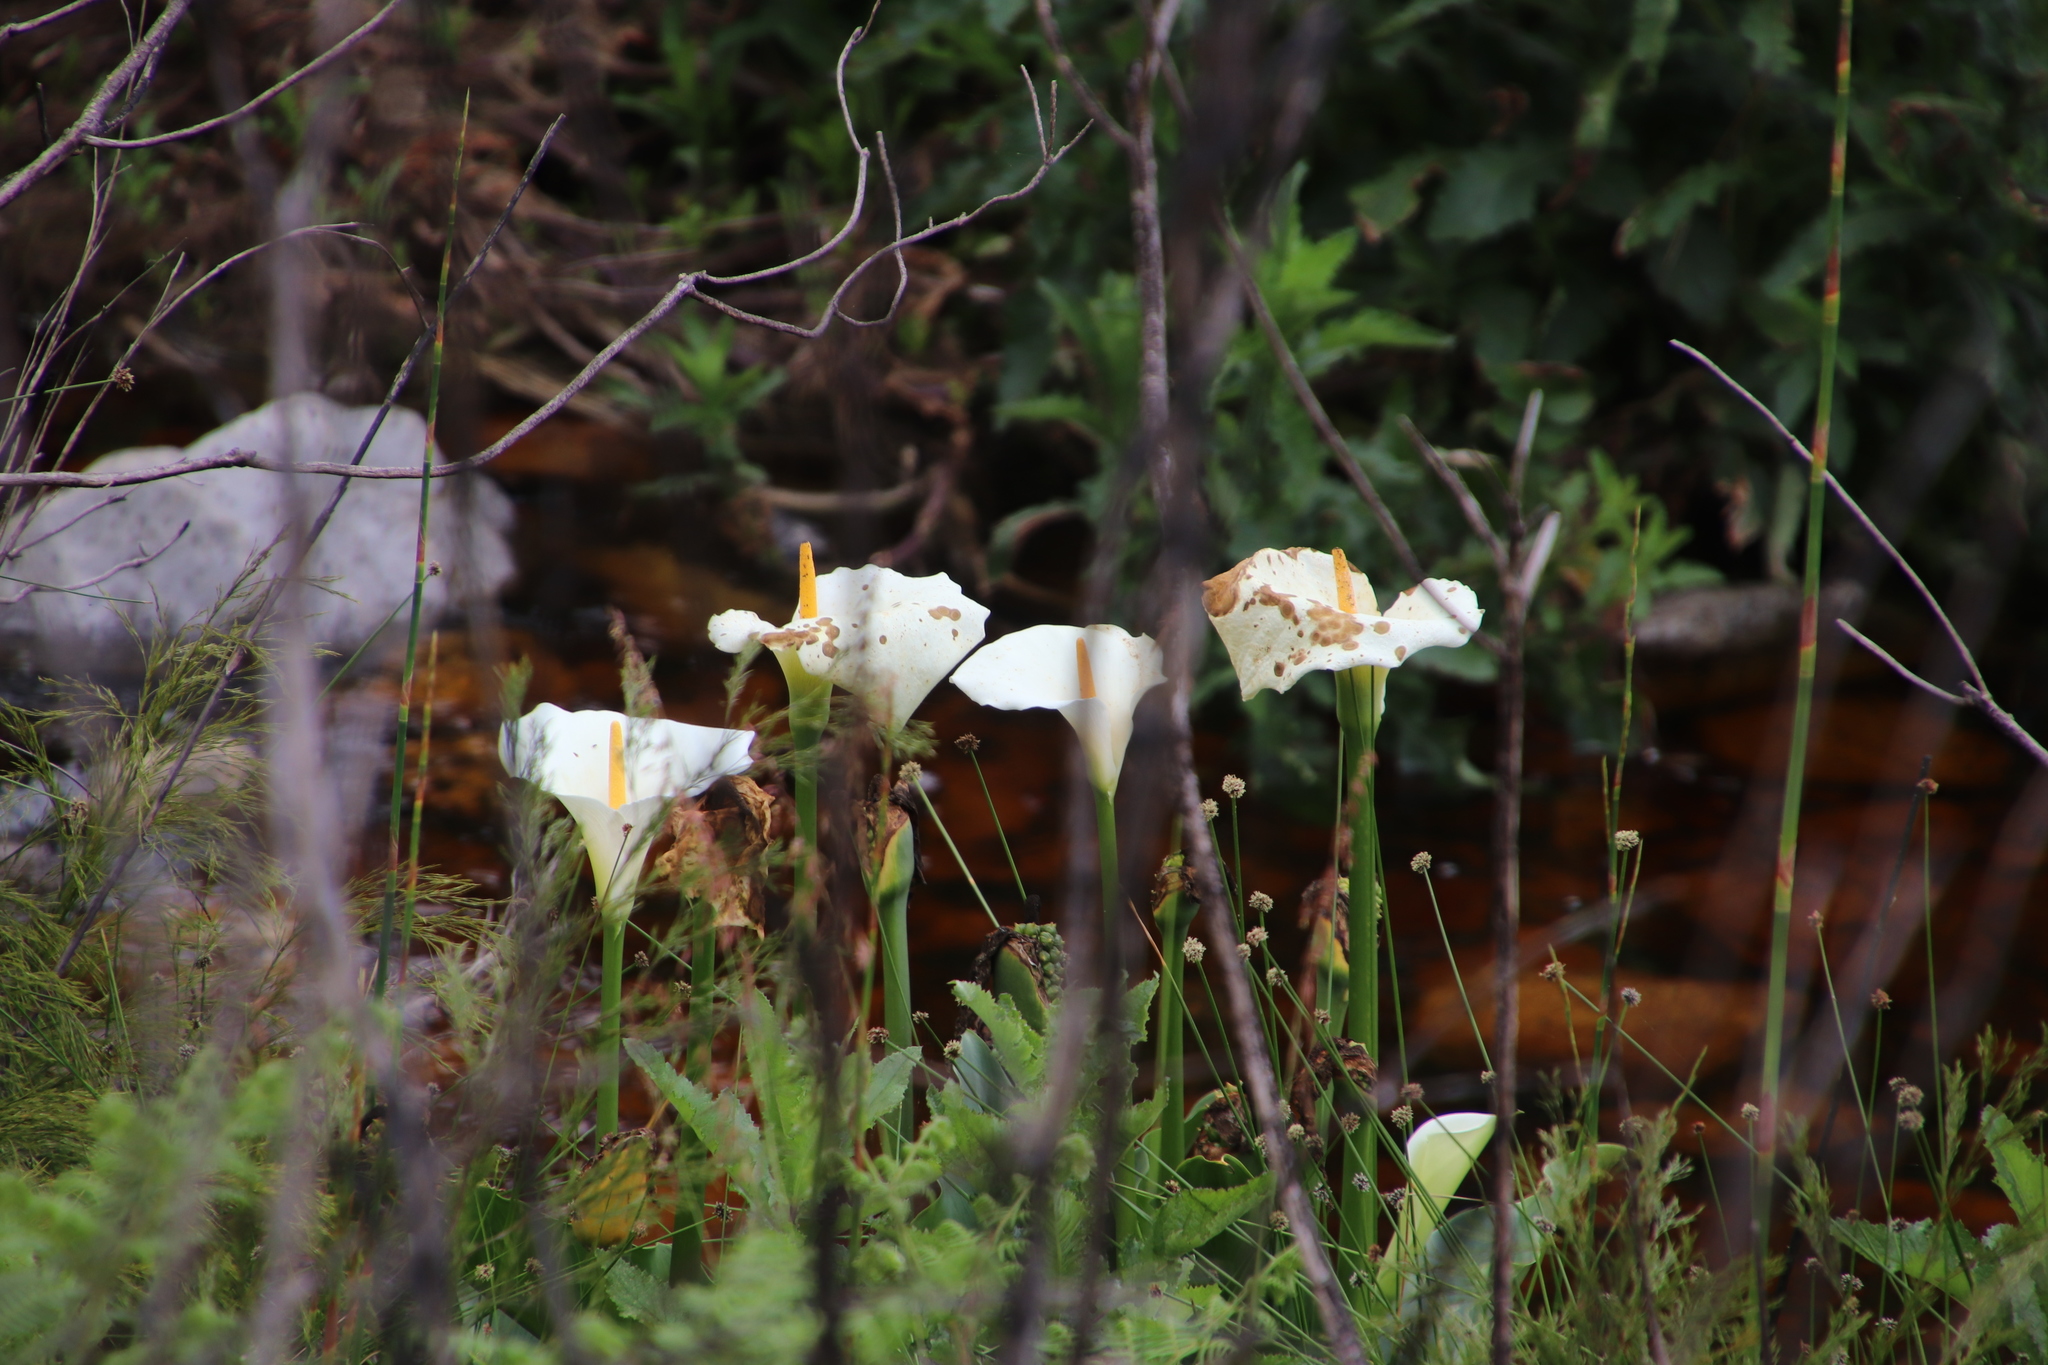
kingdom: Plantae
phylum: Tracheophyta
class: Liliopsida
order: Alismatales
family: Araceae
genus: Zantedeschia
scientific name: Zantedeschia aethiopica
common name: Altar-lily
